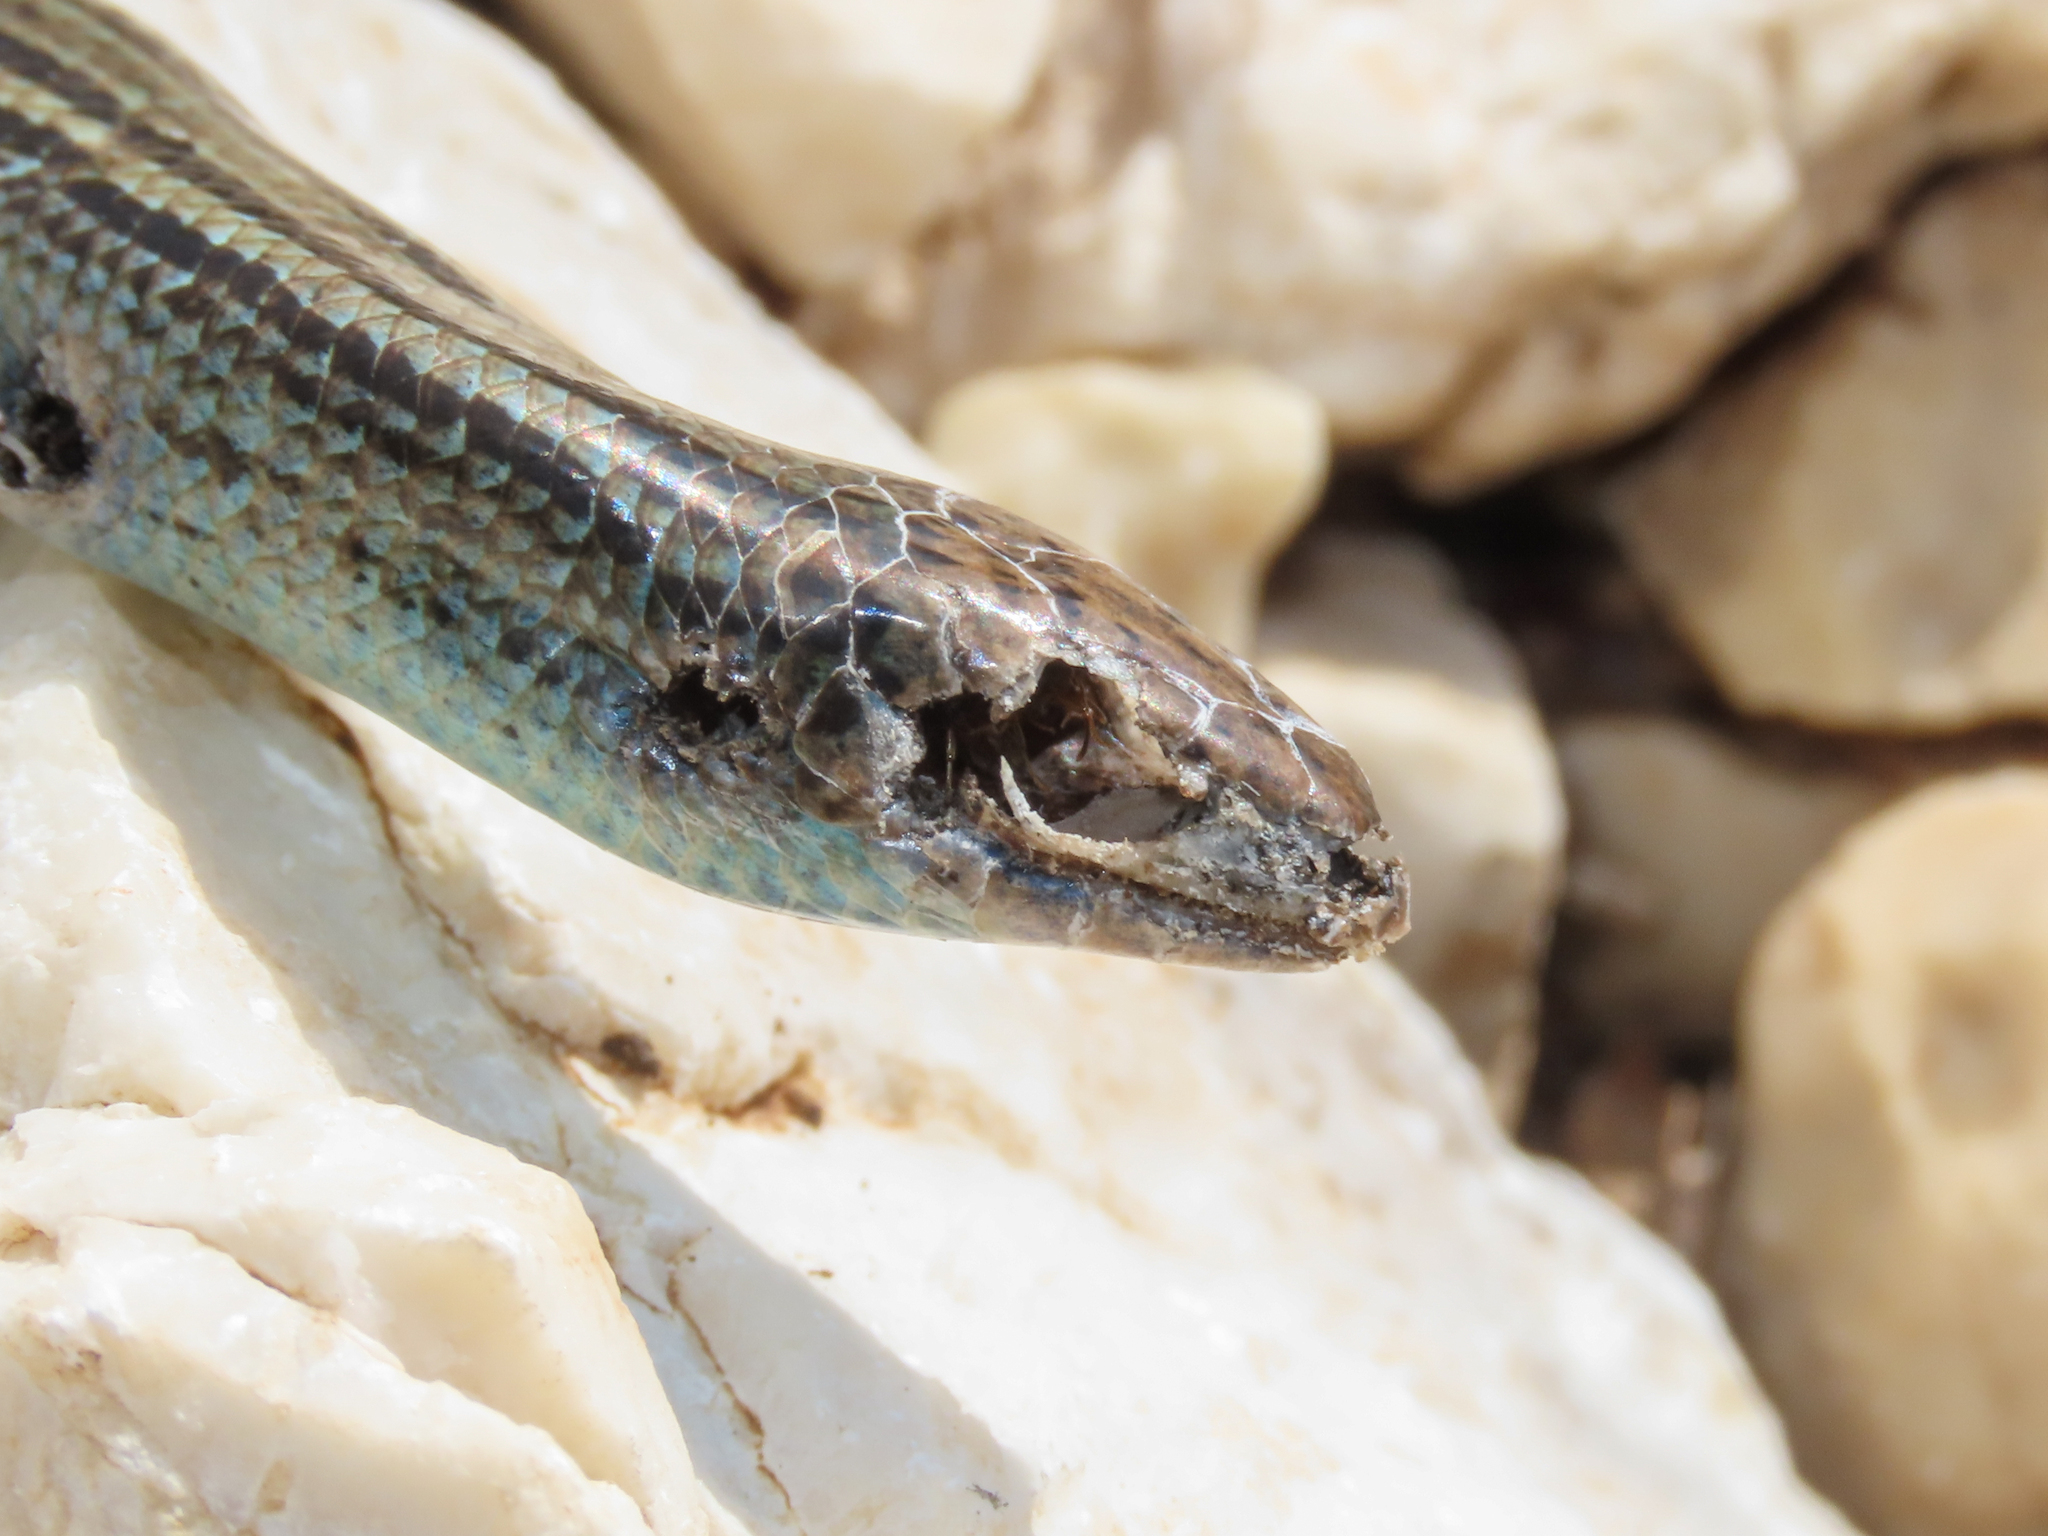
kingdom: Animalia
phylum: Chordata
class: Squamata
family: Scincidae
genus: Chalcides
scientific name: Chalcides chalcides
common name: Italian three-toed skink
